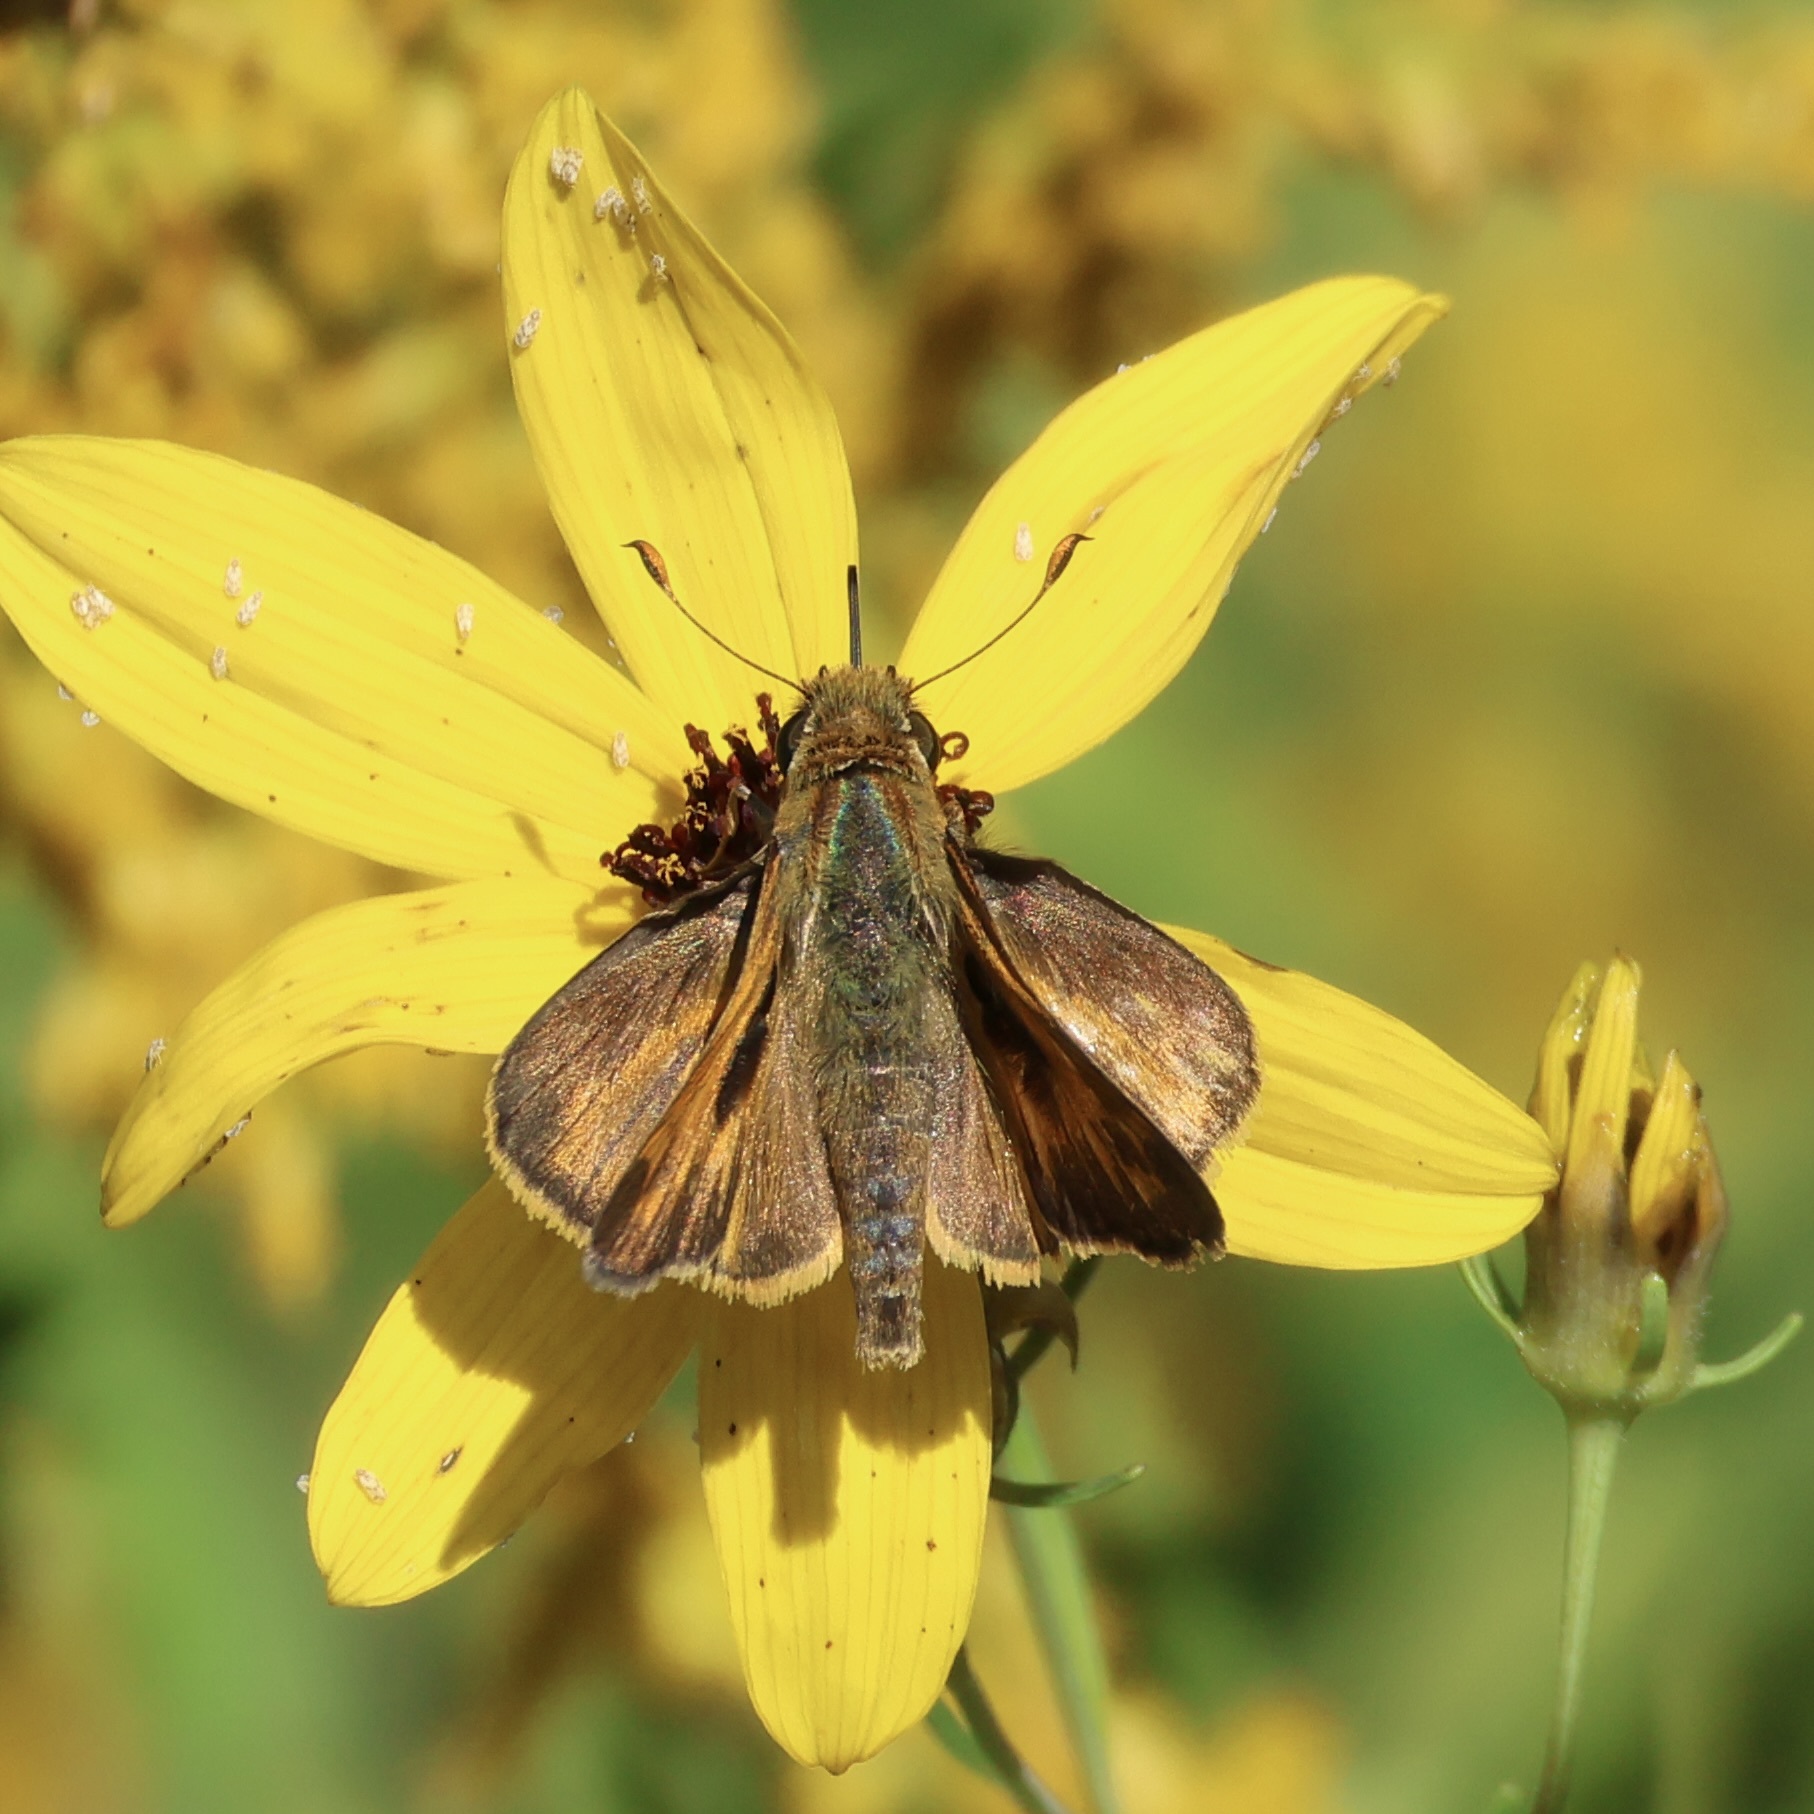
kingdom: Animalia
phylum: Arthropoda
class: Insecta
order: Lepidoptera
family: Hesperiidae
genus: Atalopedes
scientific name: Atalopedes
